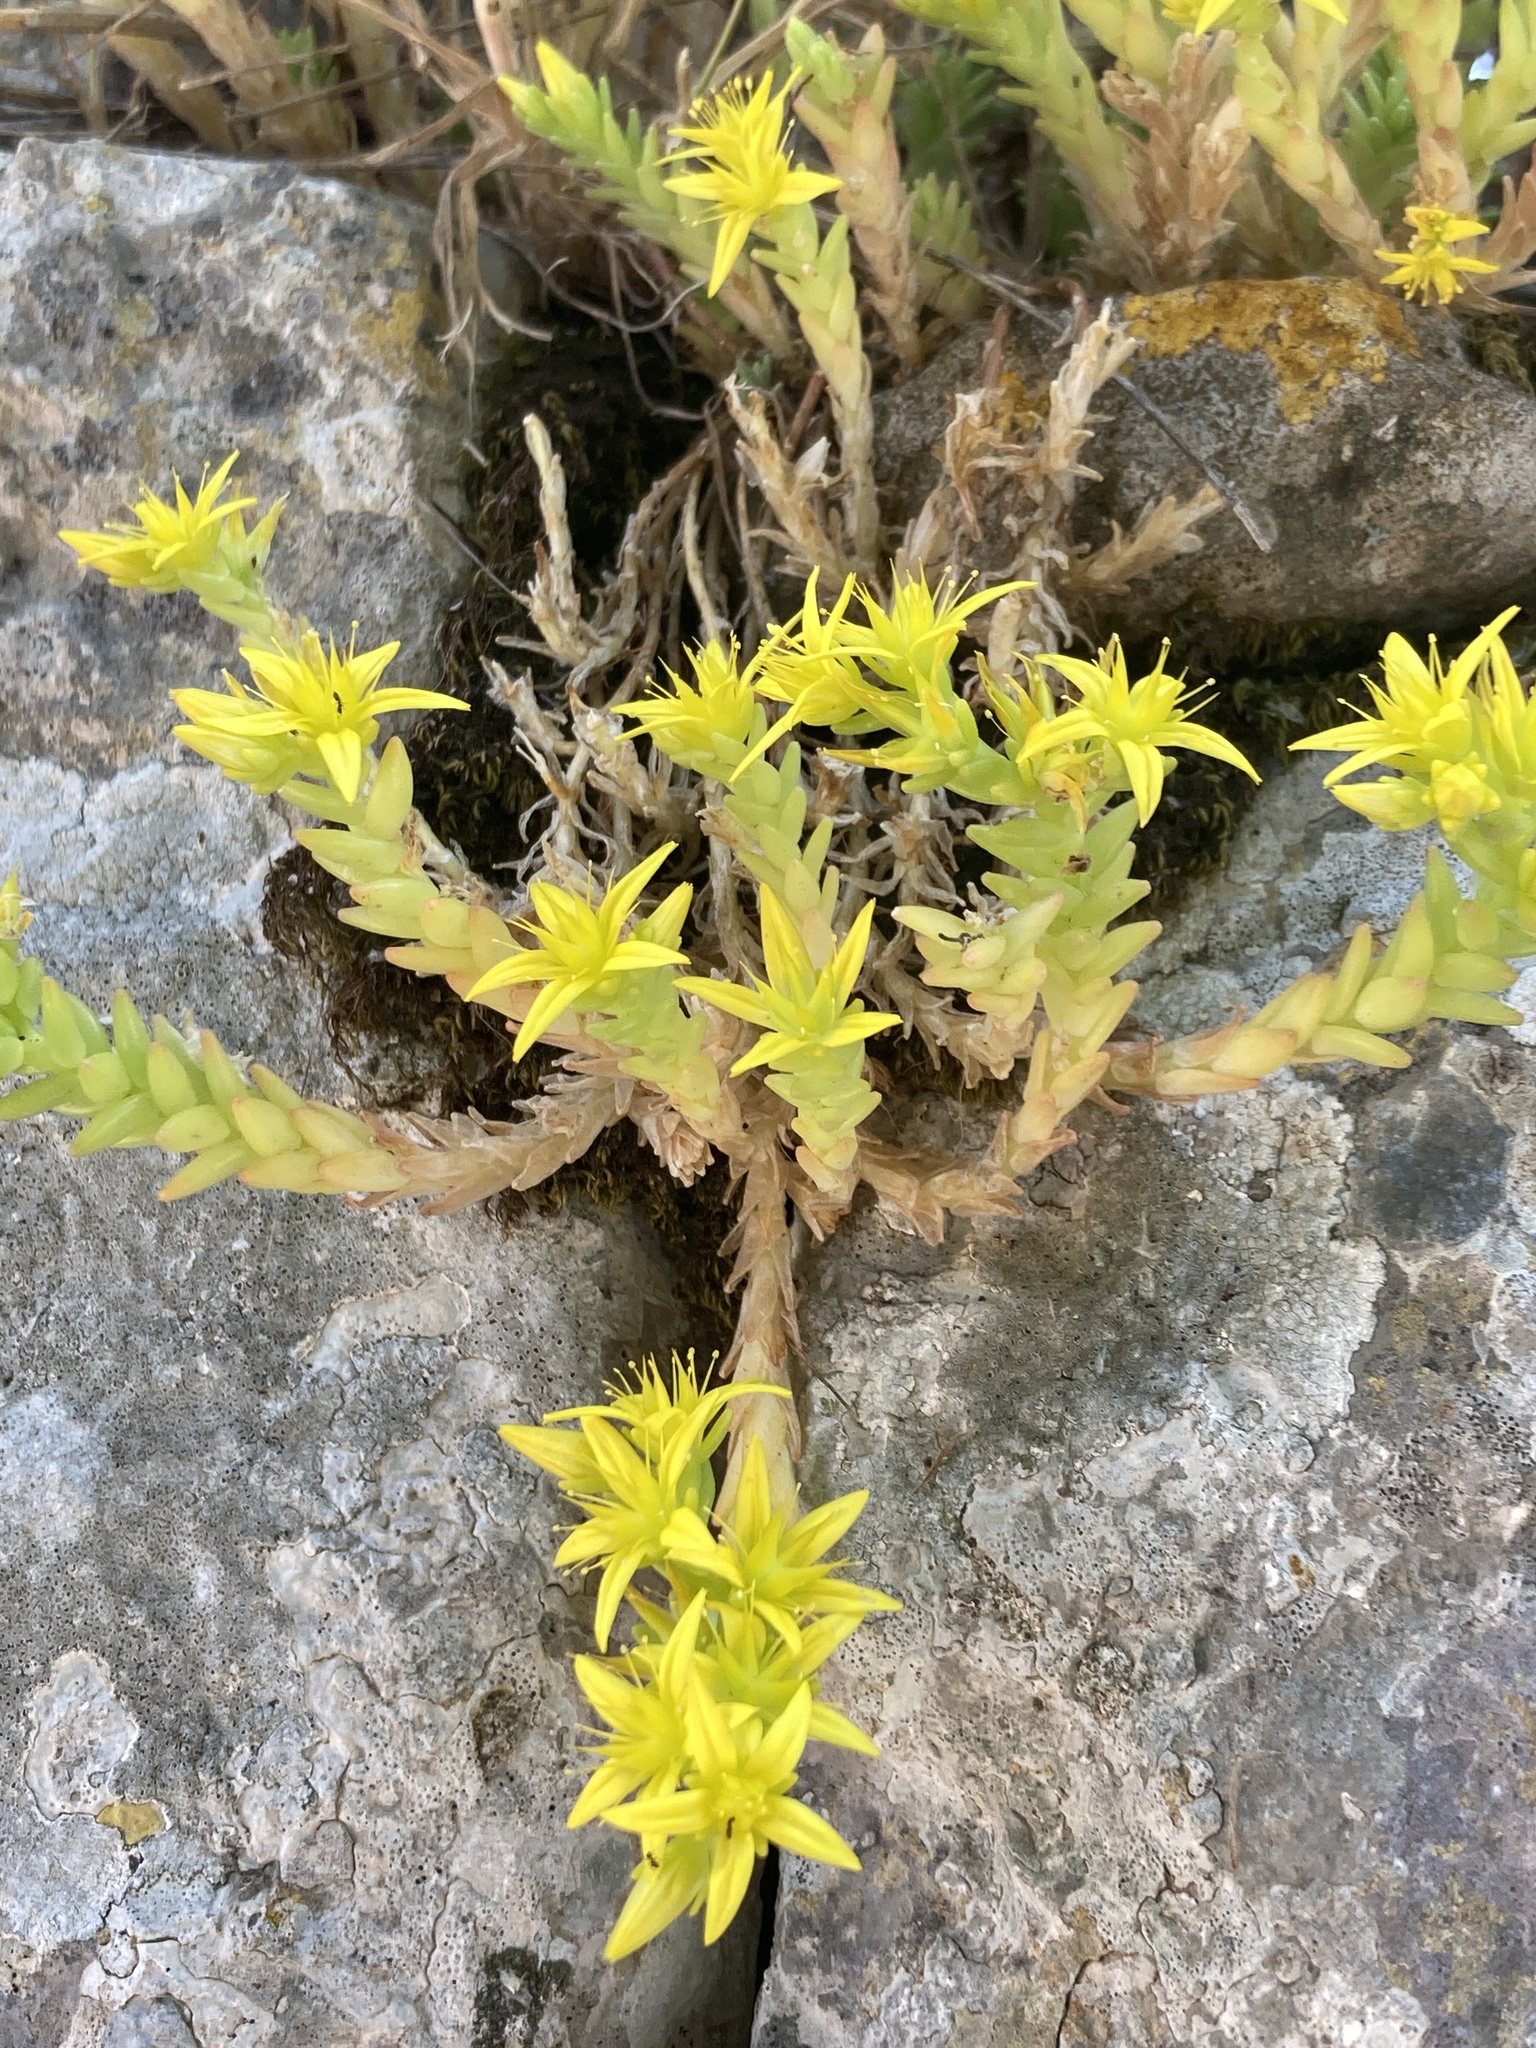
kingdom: Plantae
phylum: Tracheophyta
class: Magnoliopsida
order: Saxifragales
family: Crassulaceae
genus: Sedum
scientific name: Sedum acre
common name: Biting stonecrop
